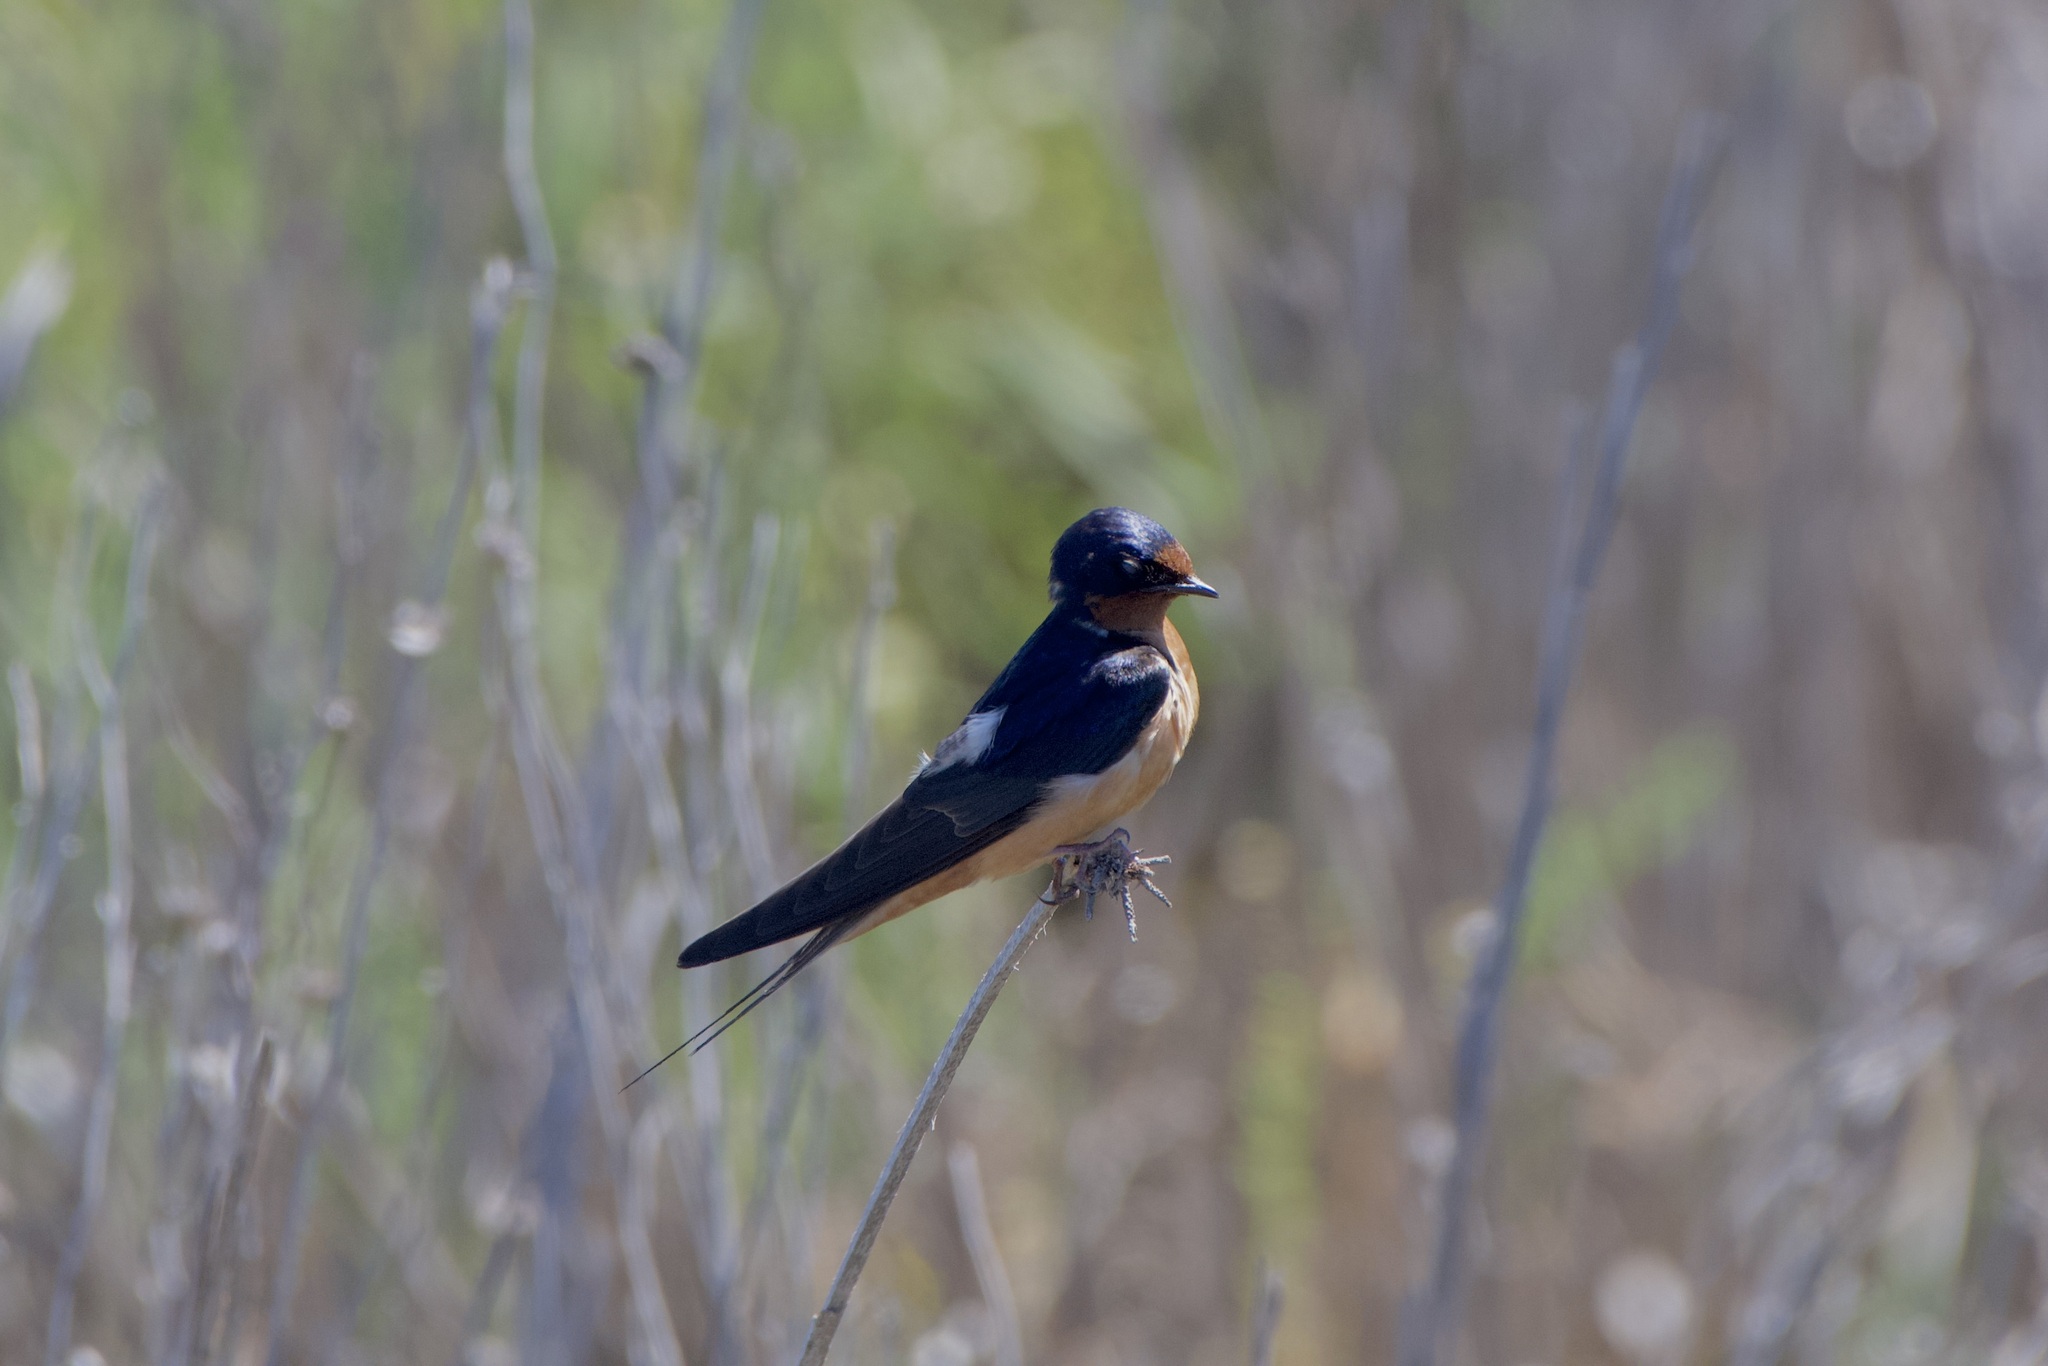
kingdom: Animalia
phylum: Chordata
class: Aves
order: Passeriformes
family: Hirundinidae
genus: Hirundo
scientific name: Hirundo rustica
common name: Barn swallow
